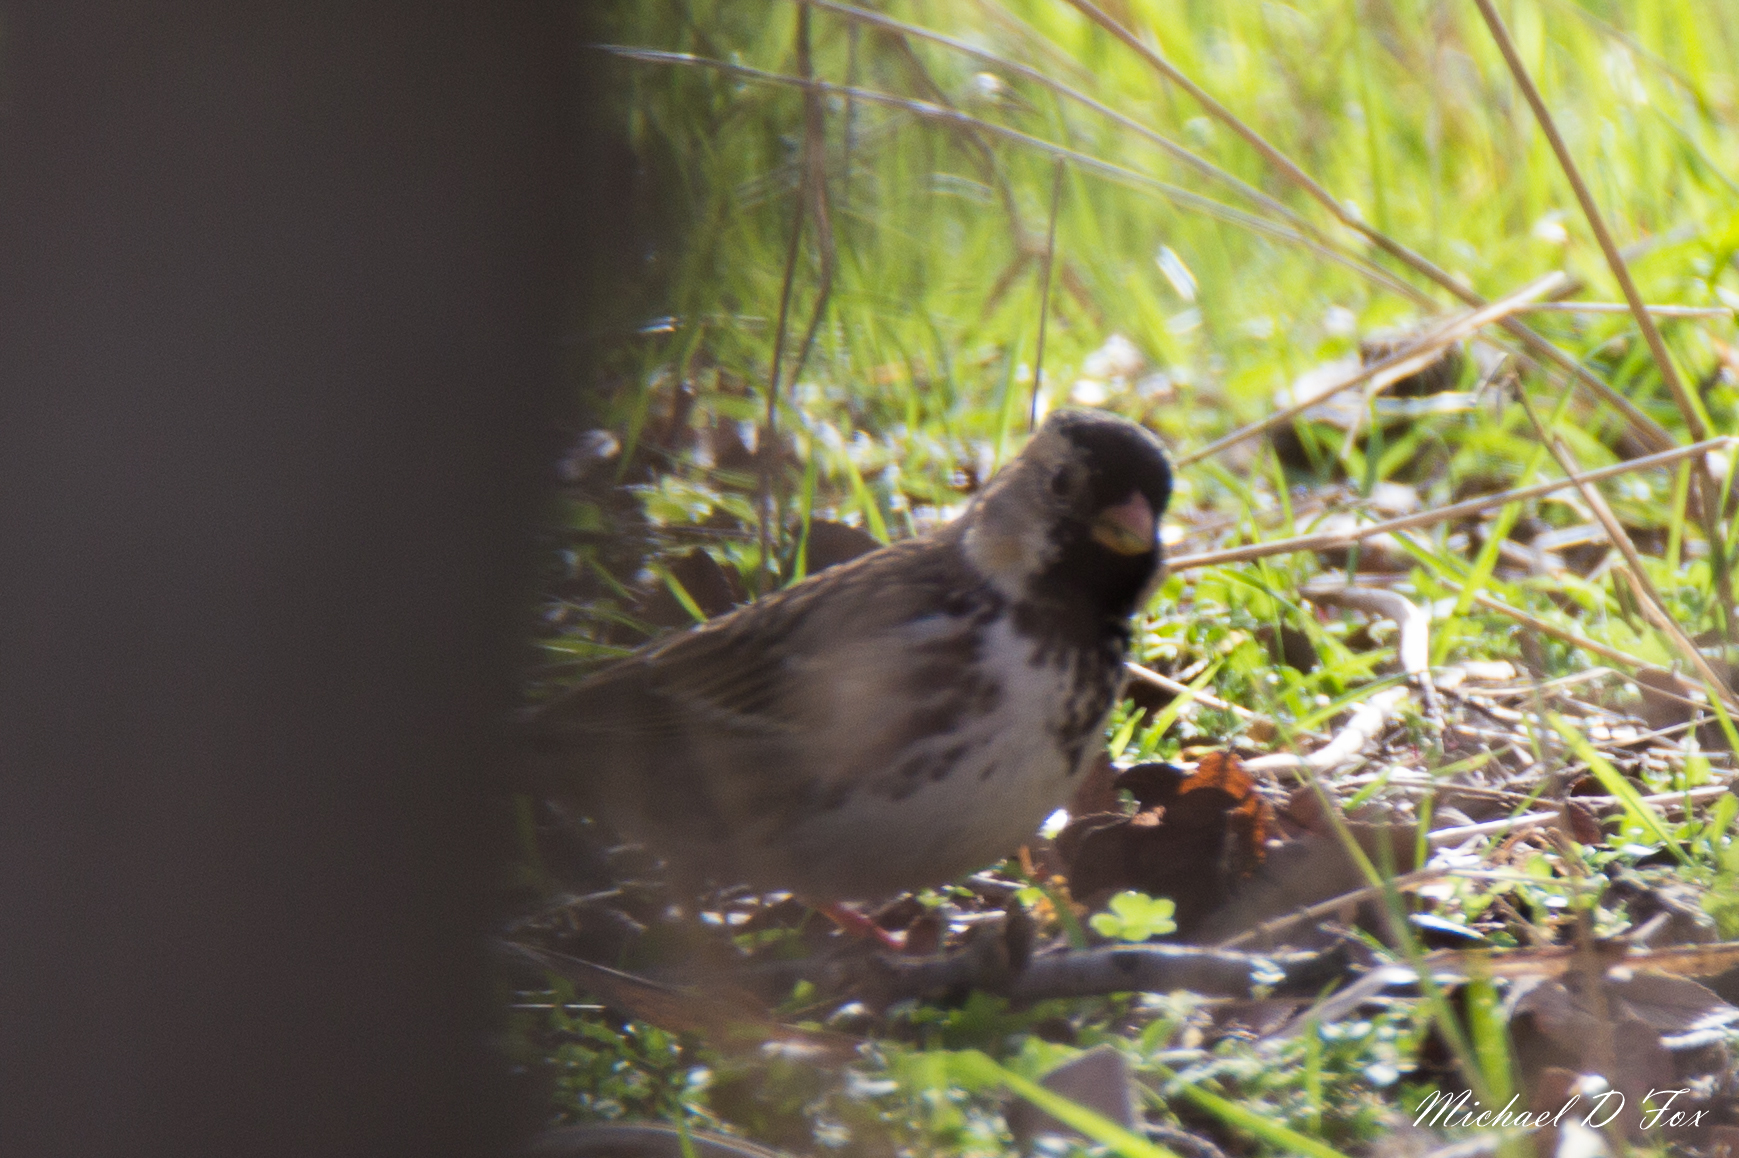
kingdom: Animalia
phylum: Chordata
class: Aves
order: Passeriformes
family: Passerellidae
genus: Zonotrichia
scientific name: Zonotrichia querula
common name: Harris's sparrow
